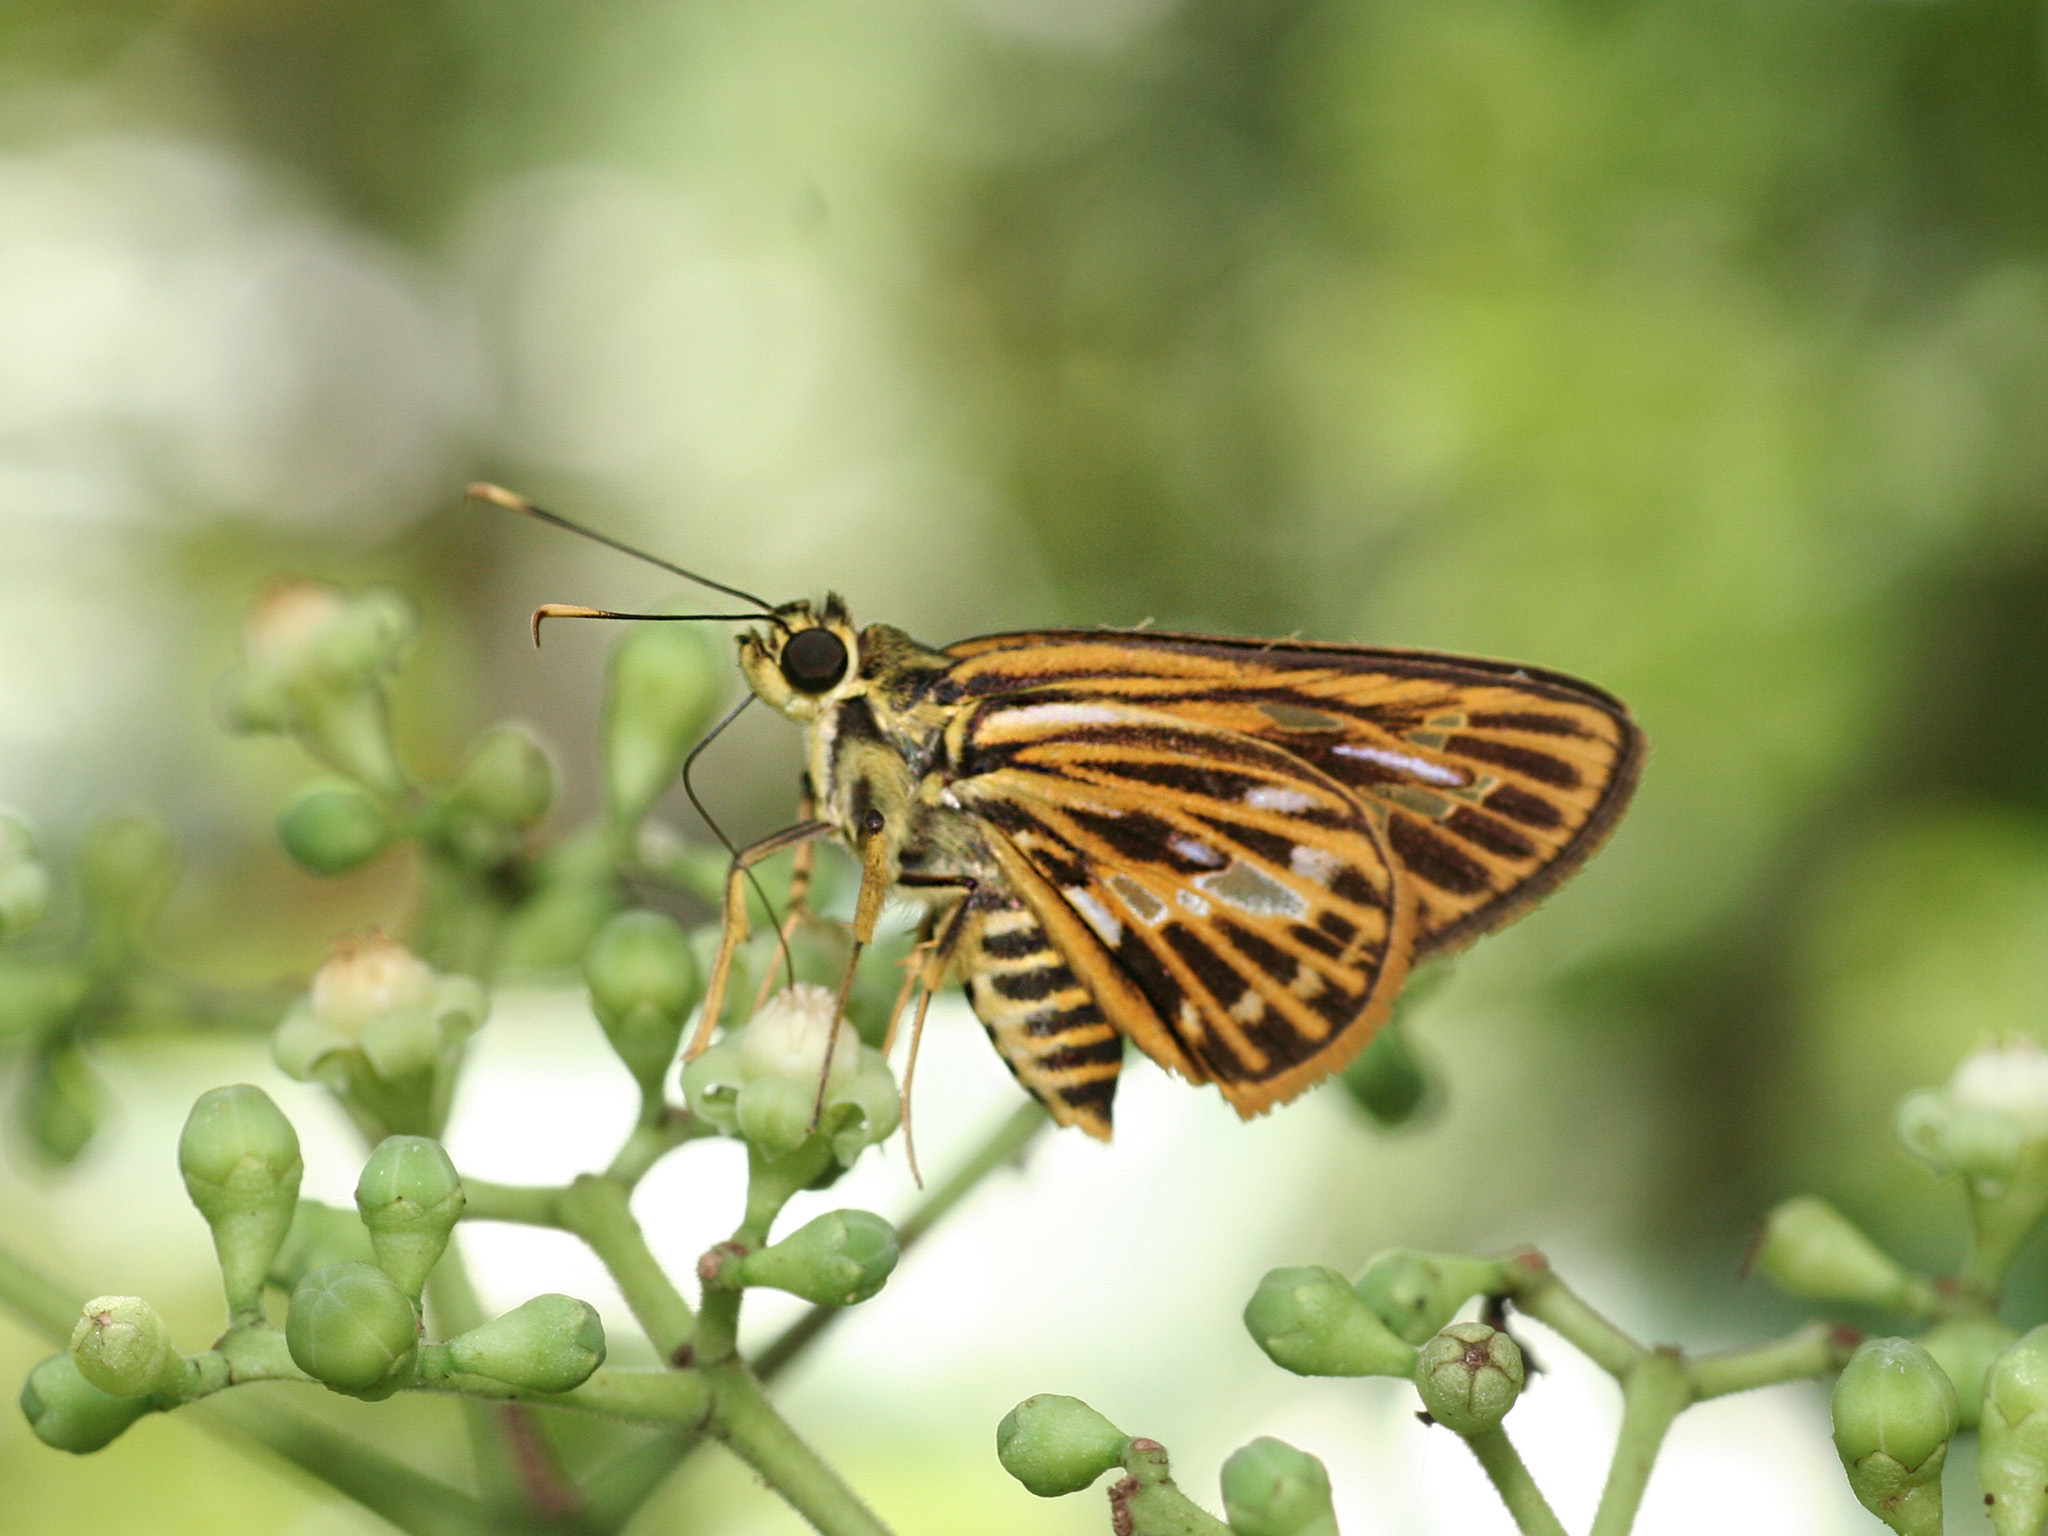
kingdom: Animalia
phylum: Arthropoda
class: Insecta
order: Lepidoptera
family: Hesperiidae
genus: Pyroneura
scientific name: Pyroneura latoia
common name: Yellow vein lancer
